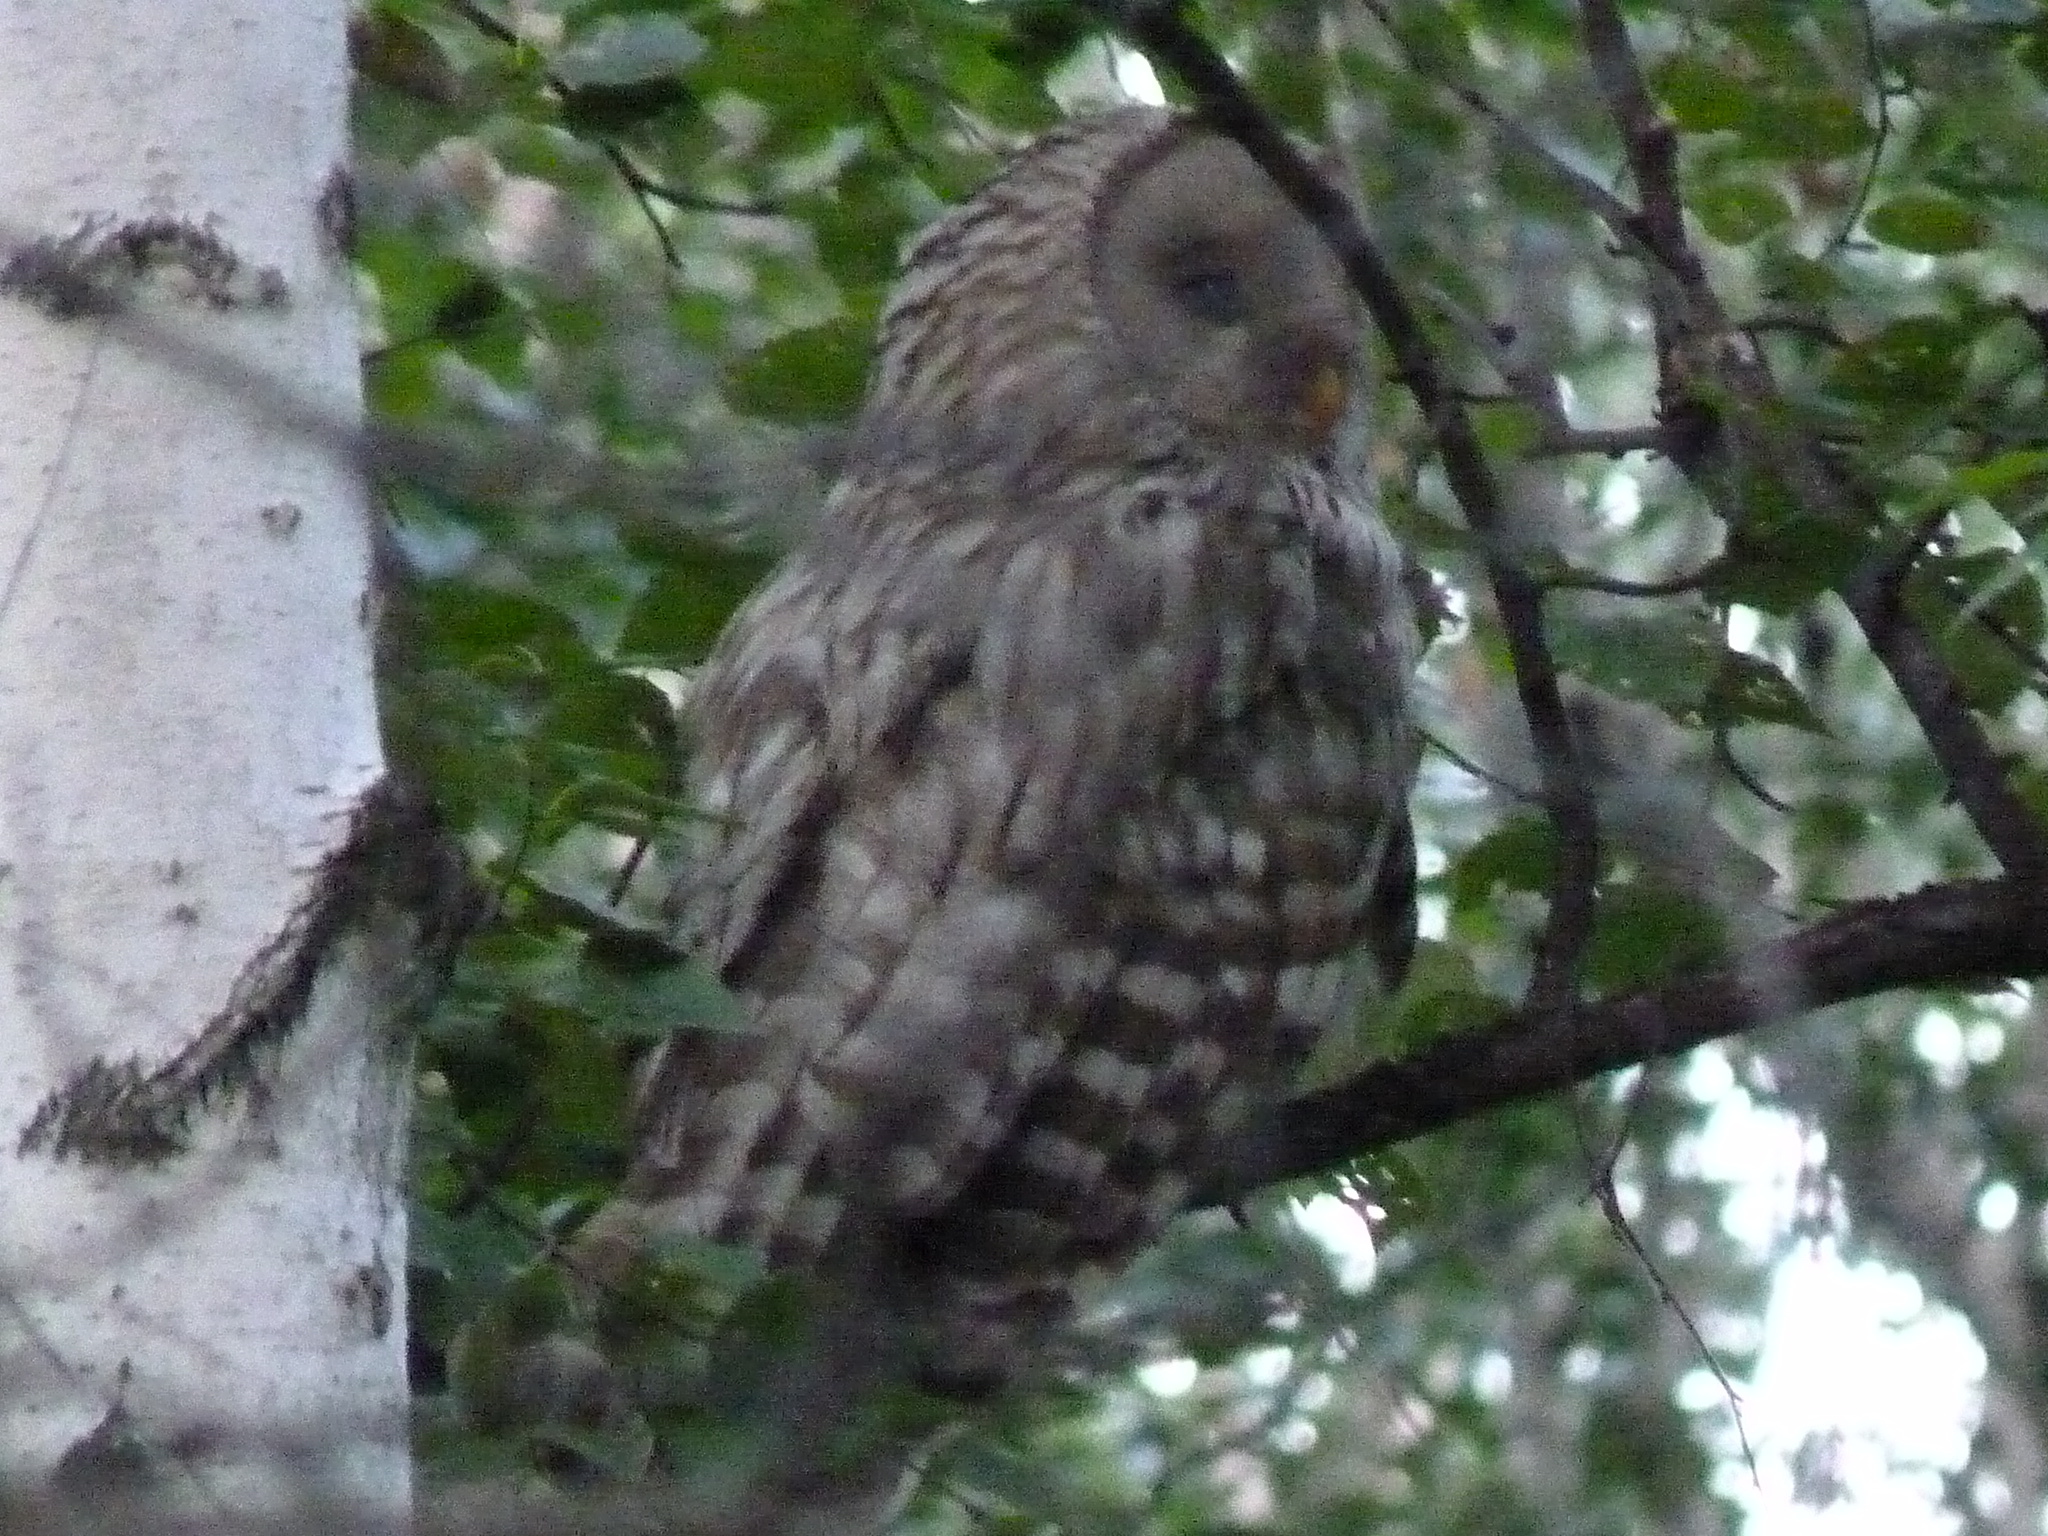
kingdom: Animalia
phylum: Chordata
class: Aves
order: Strigiformes
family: Strigidae
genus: Strix
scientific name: Strix uralensis
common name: Ural owl
